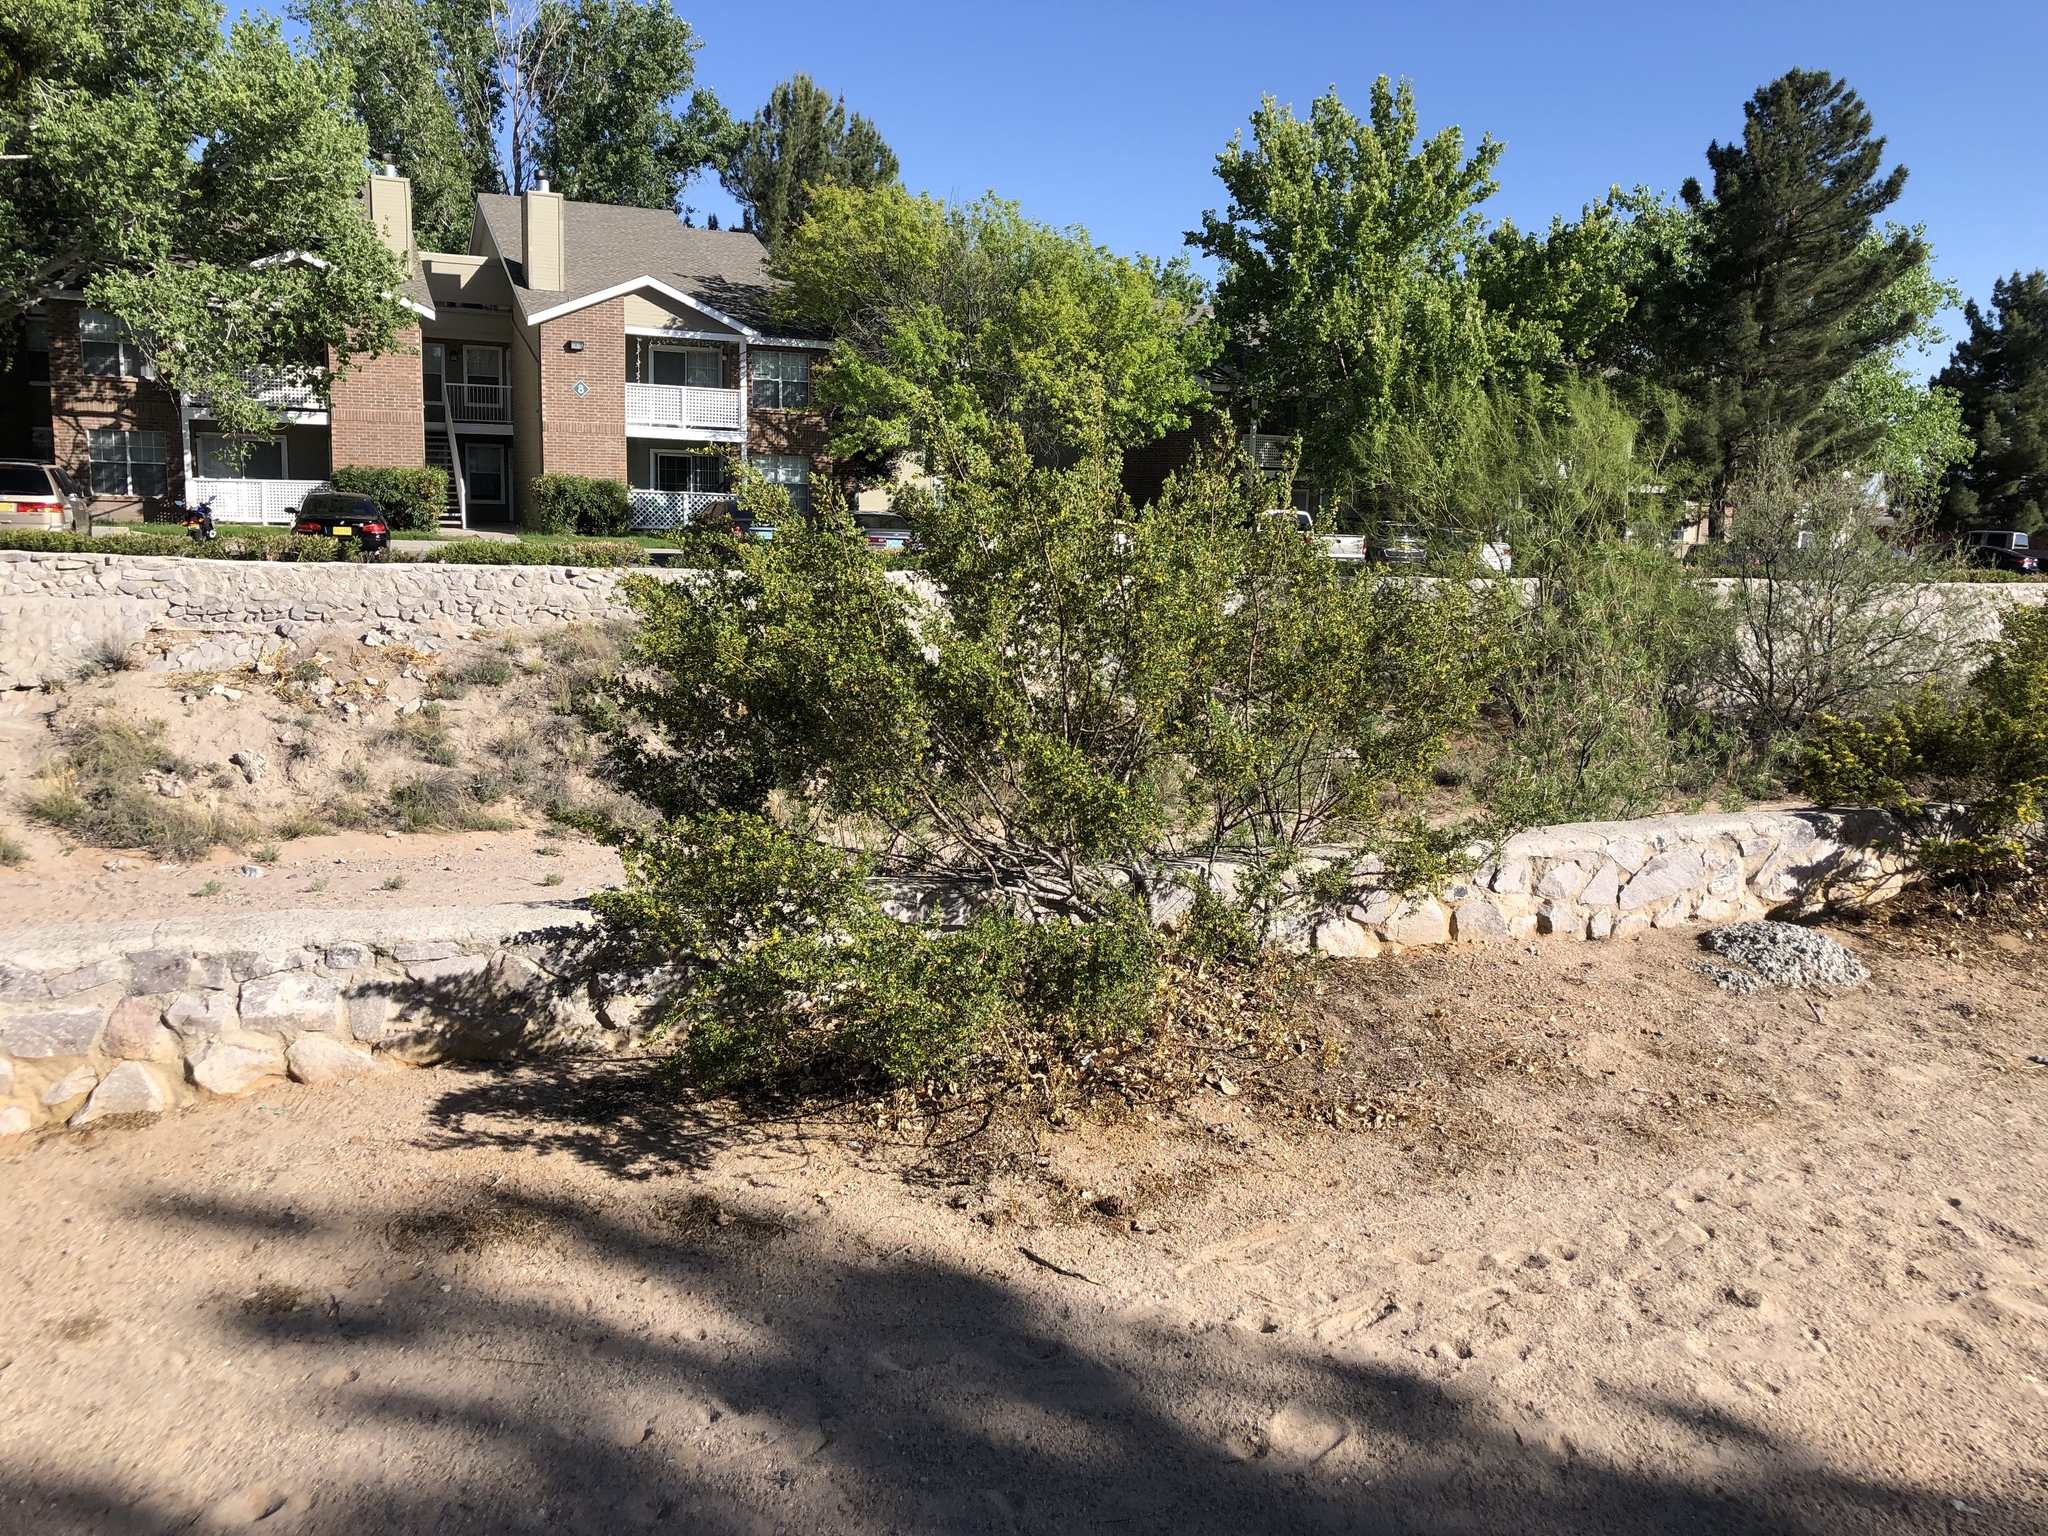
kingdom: Plantae
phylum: Tracheophyta
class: Magnoliopsida
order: Zygophyllales
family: Zygophyllaceae
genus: Larrea
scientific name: Larrea tridentata
